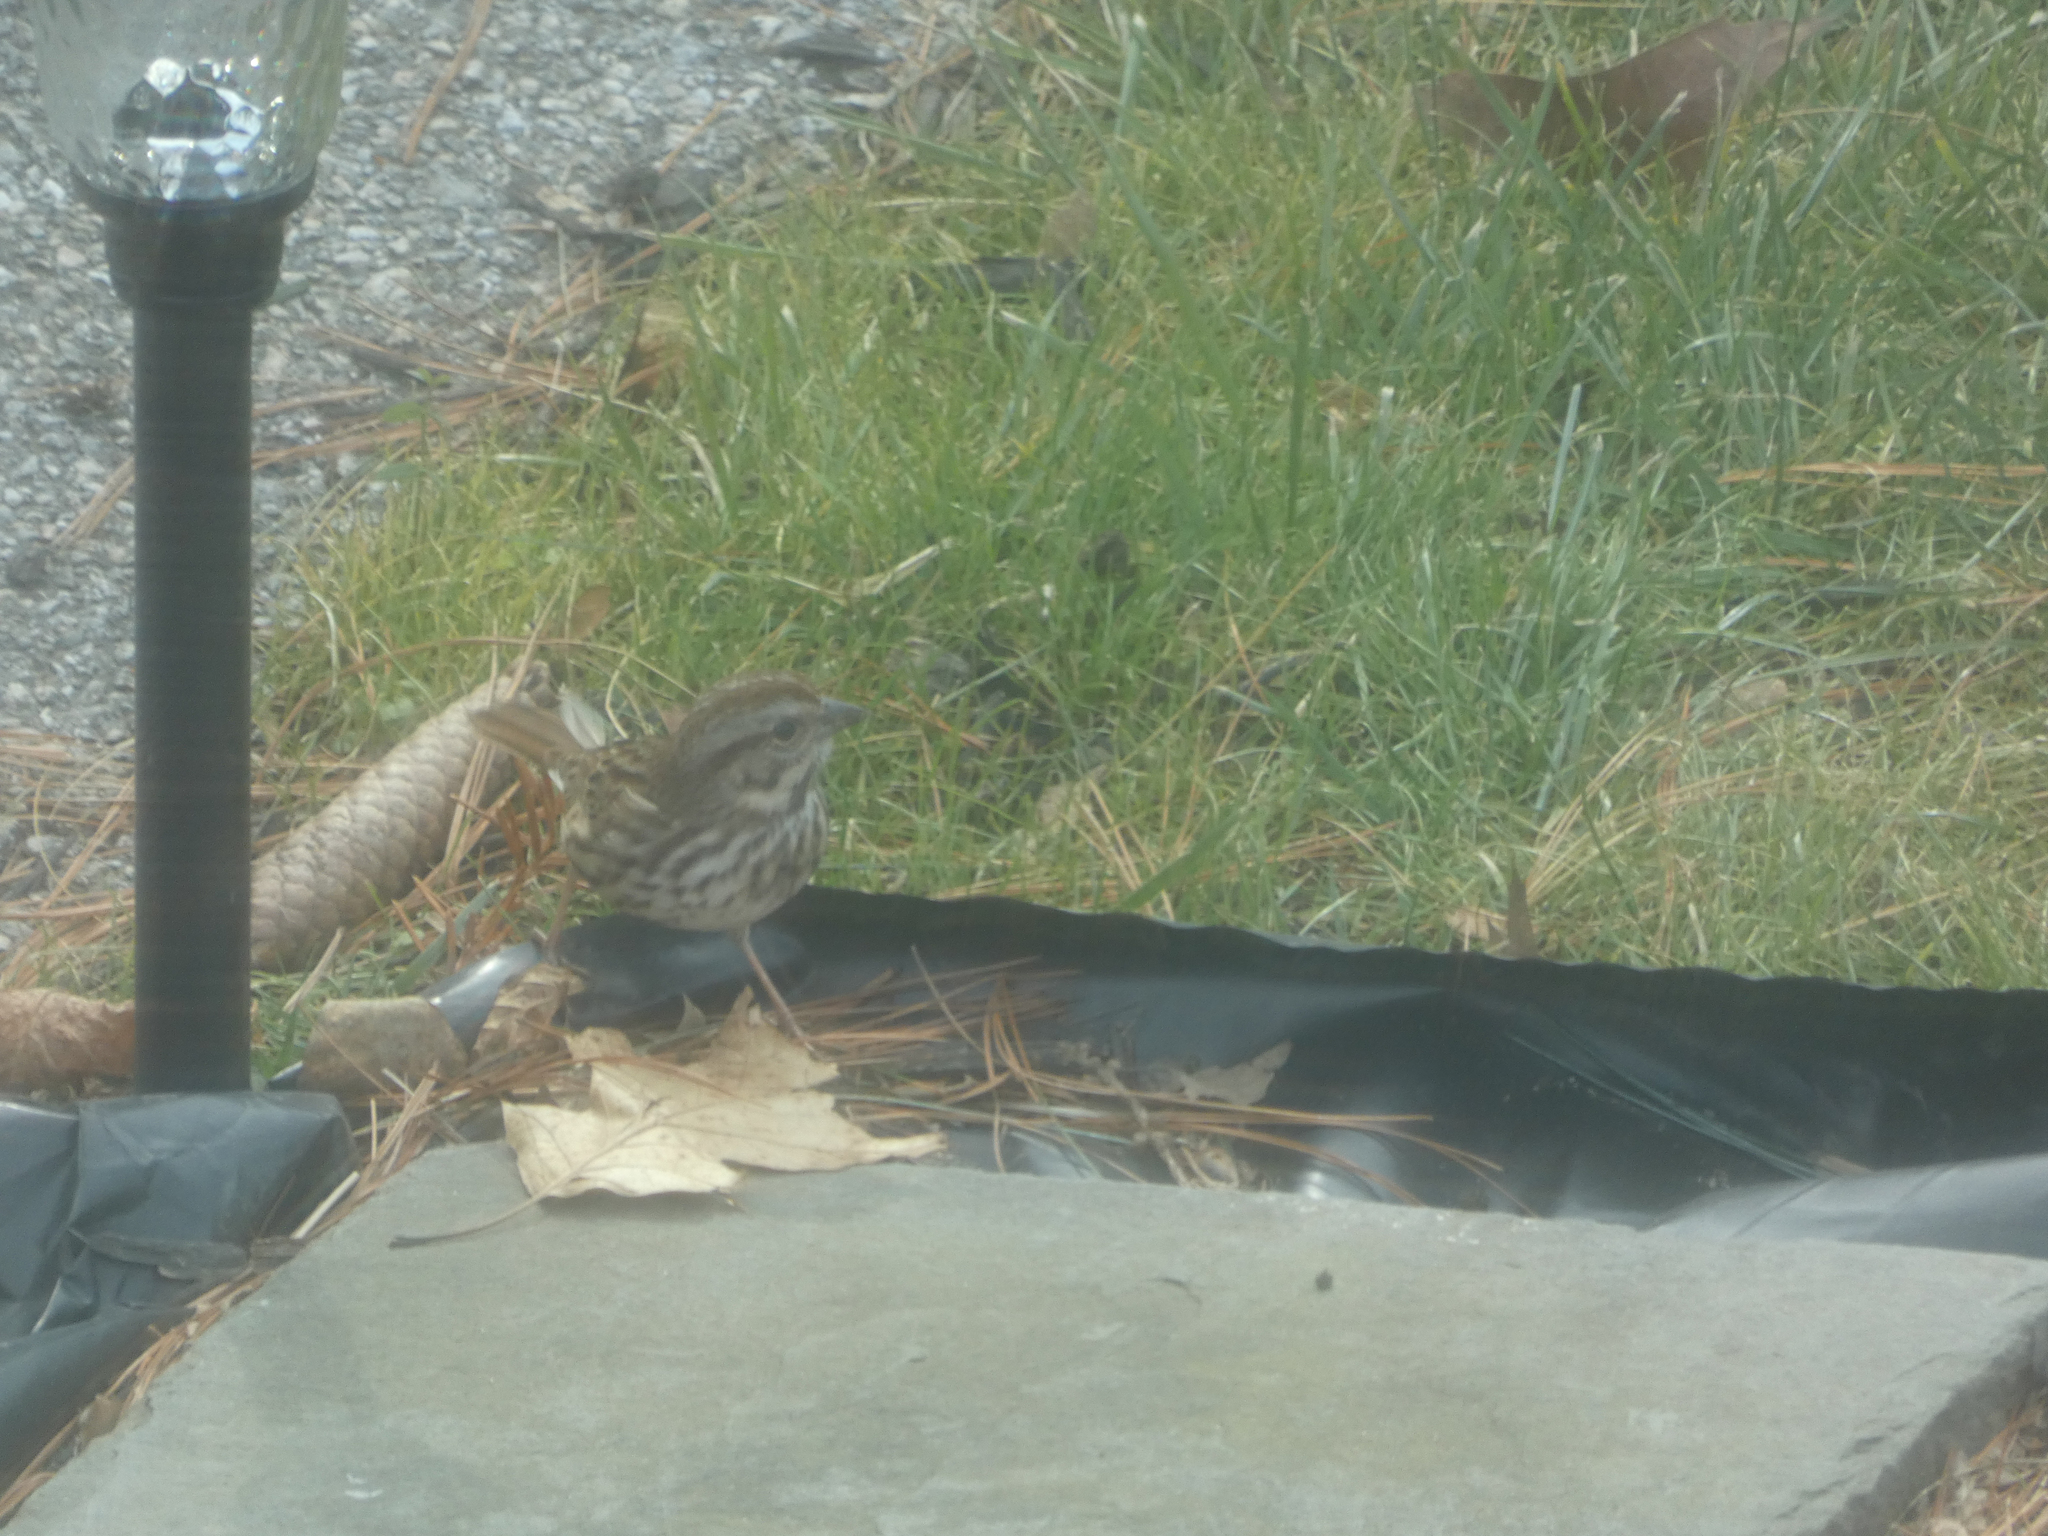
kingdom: Animalia
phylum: Chordata
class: Aves
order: Passeriformes
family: Passerellidae
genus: Melospiza
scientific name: Melospiza melodia
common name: Song sparrow
